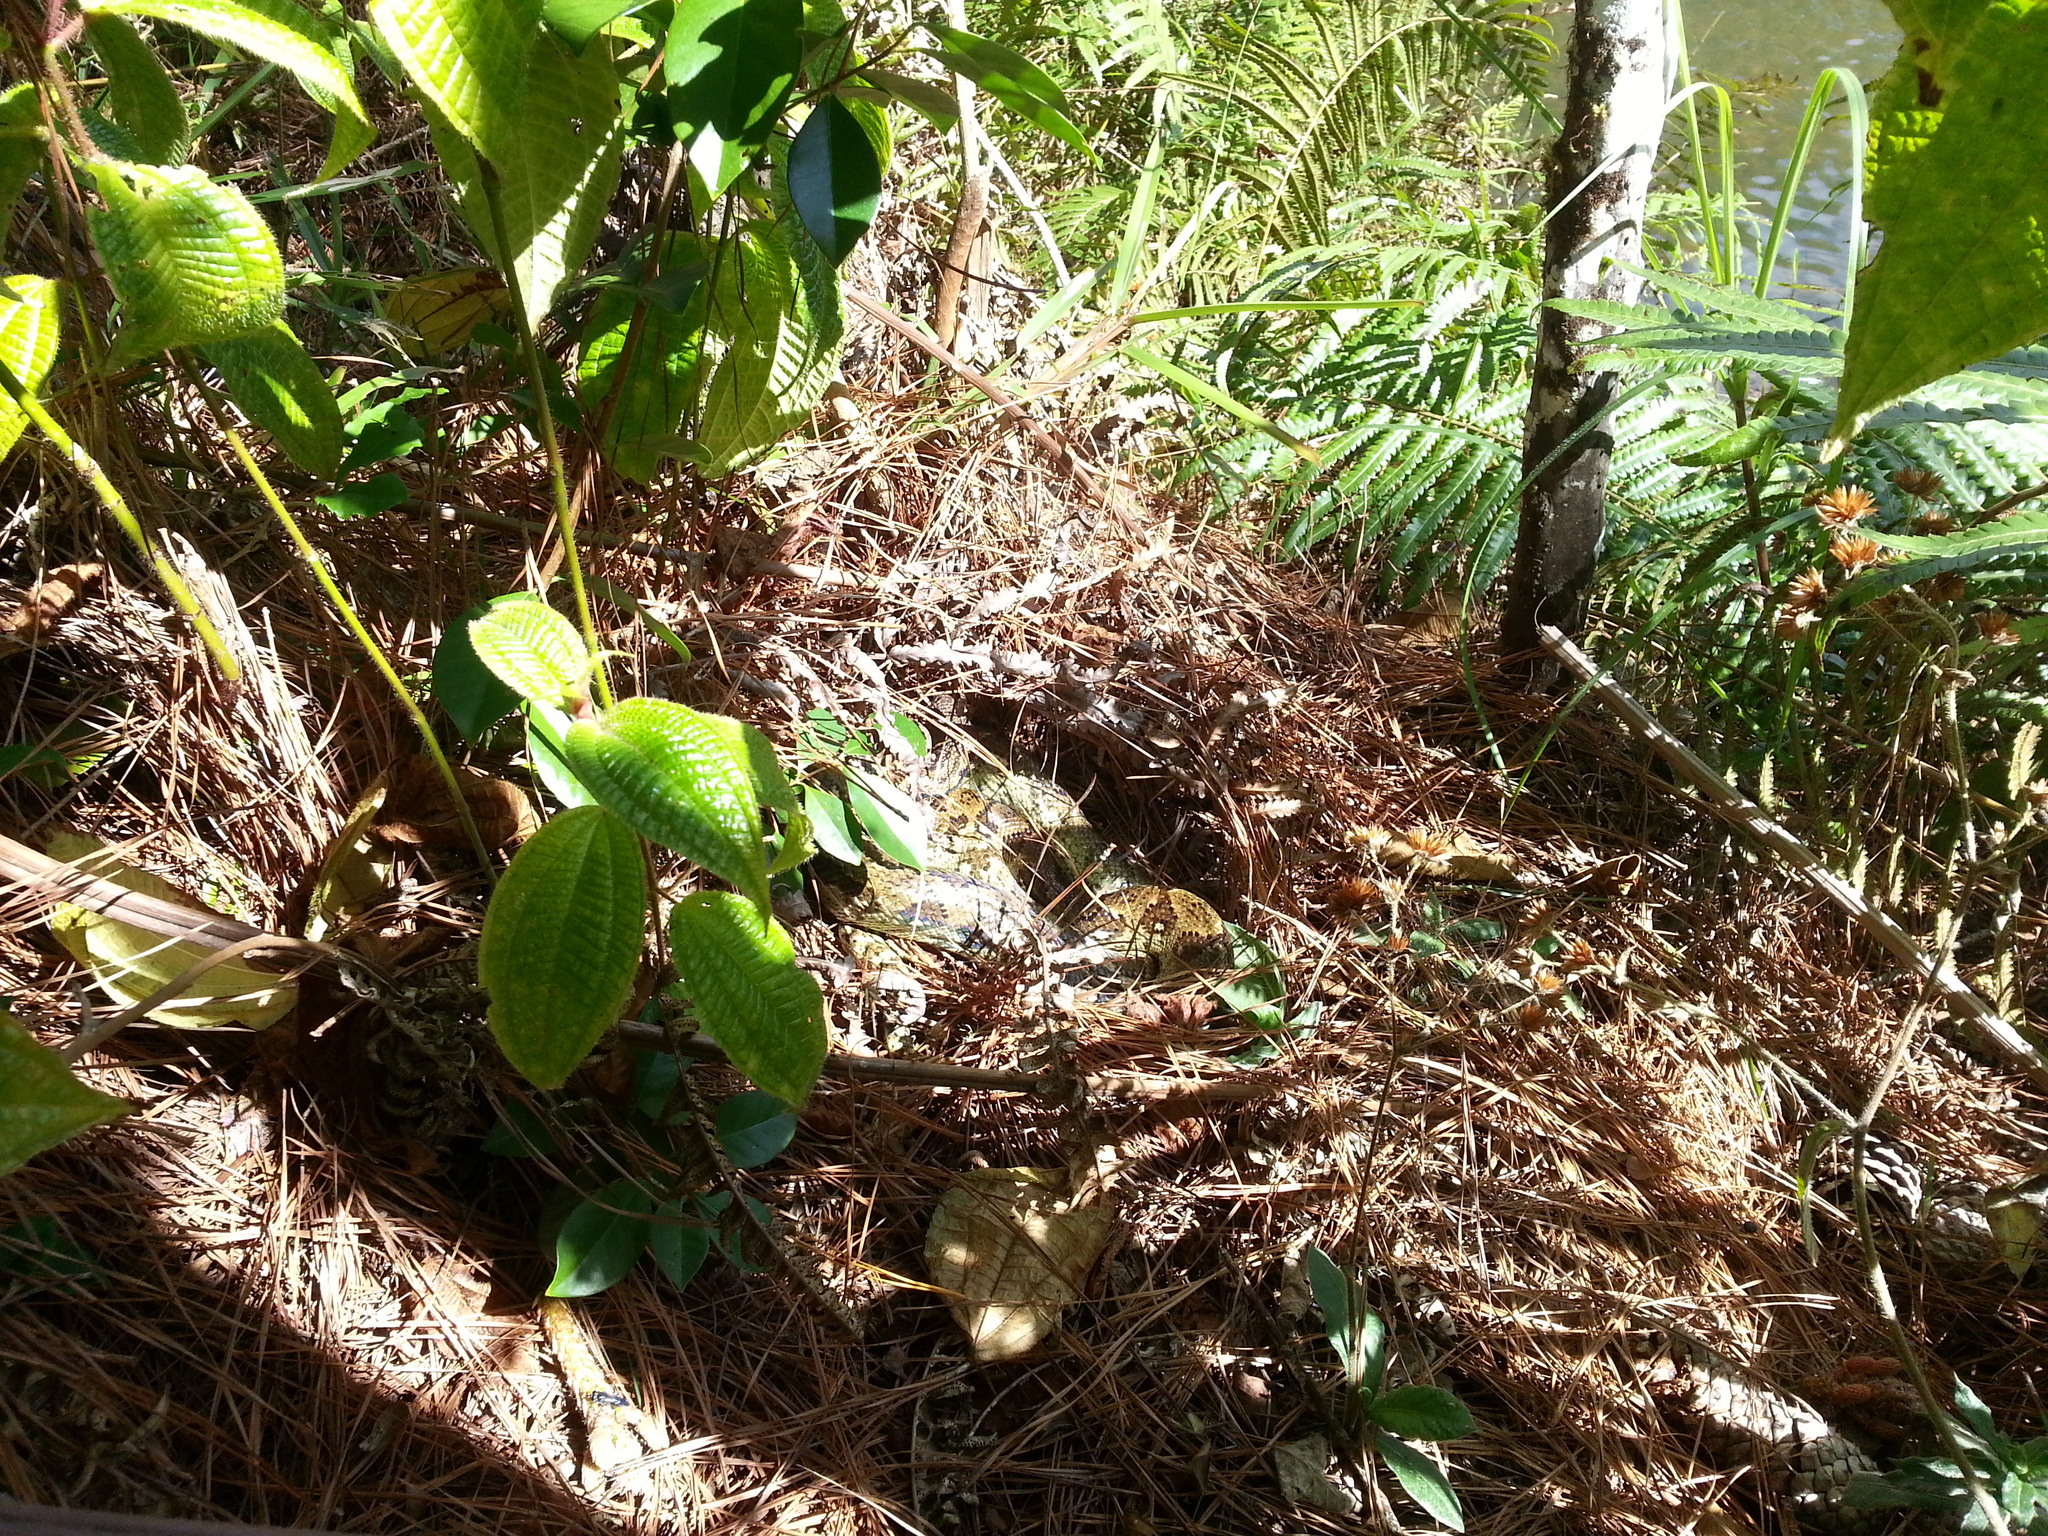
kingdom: Animalia
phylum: Chordata
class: Squamata
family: Boidae
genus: Sanzinia
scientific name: Sanzinia madagascariensis
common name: Madagascar tree boa
